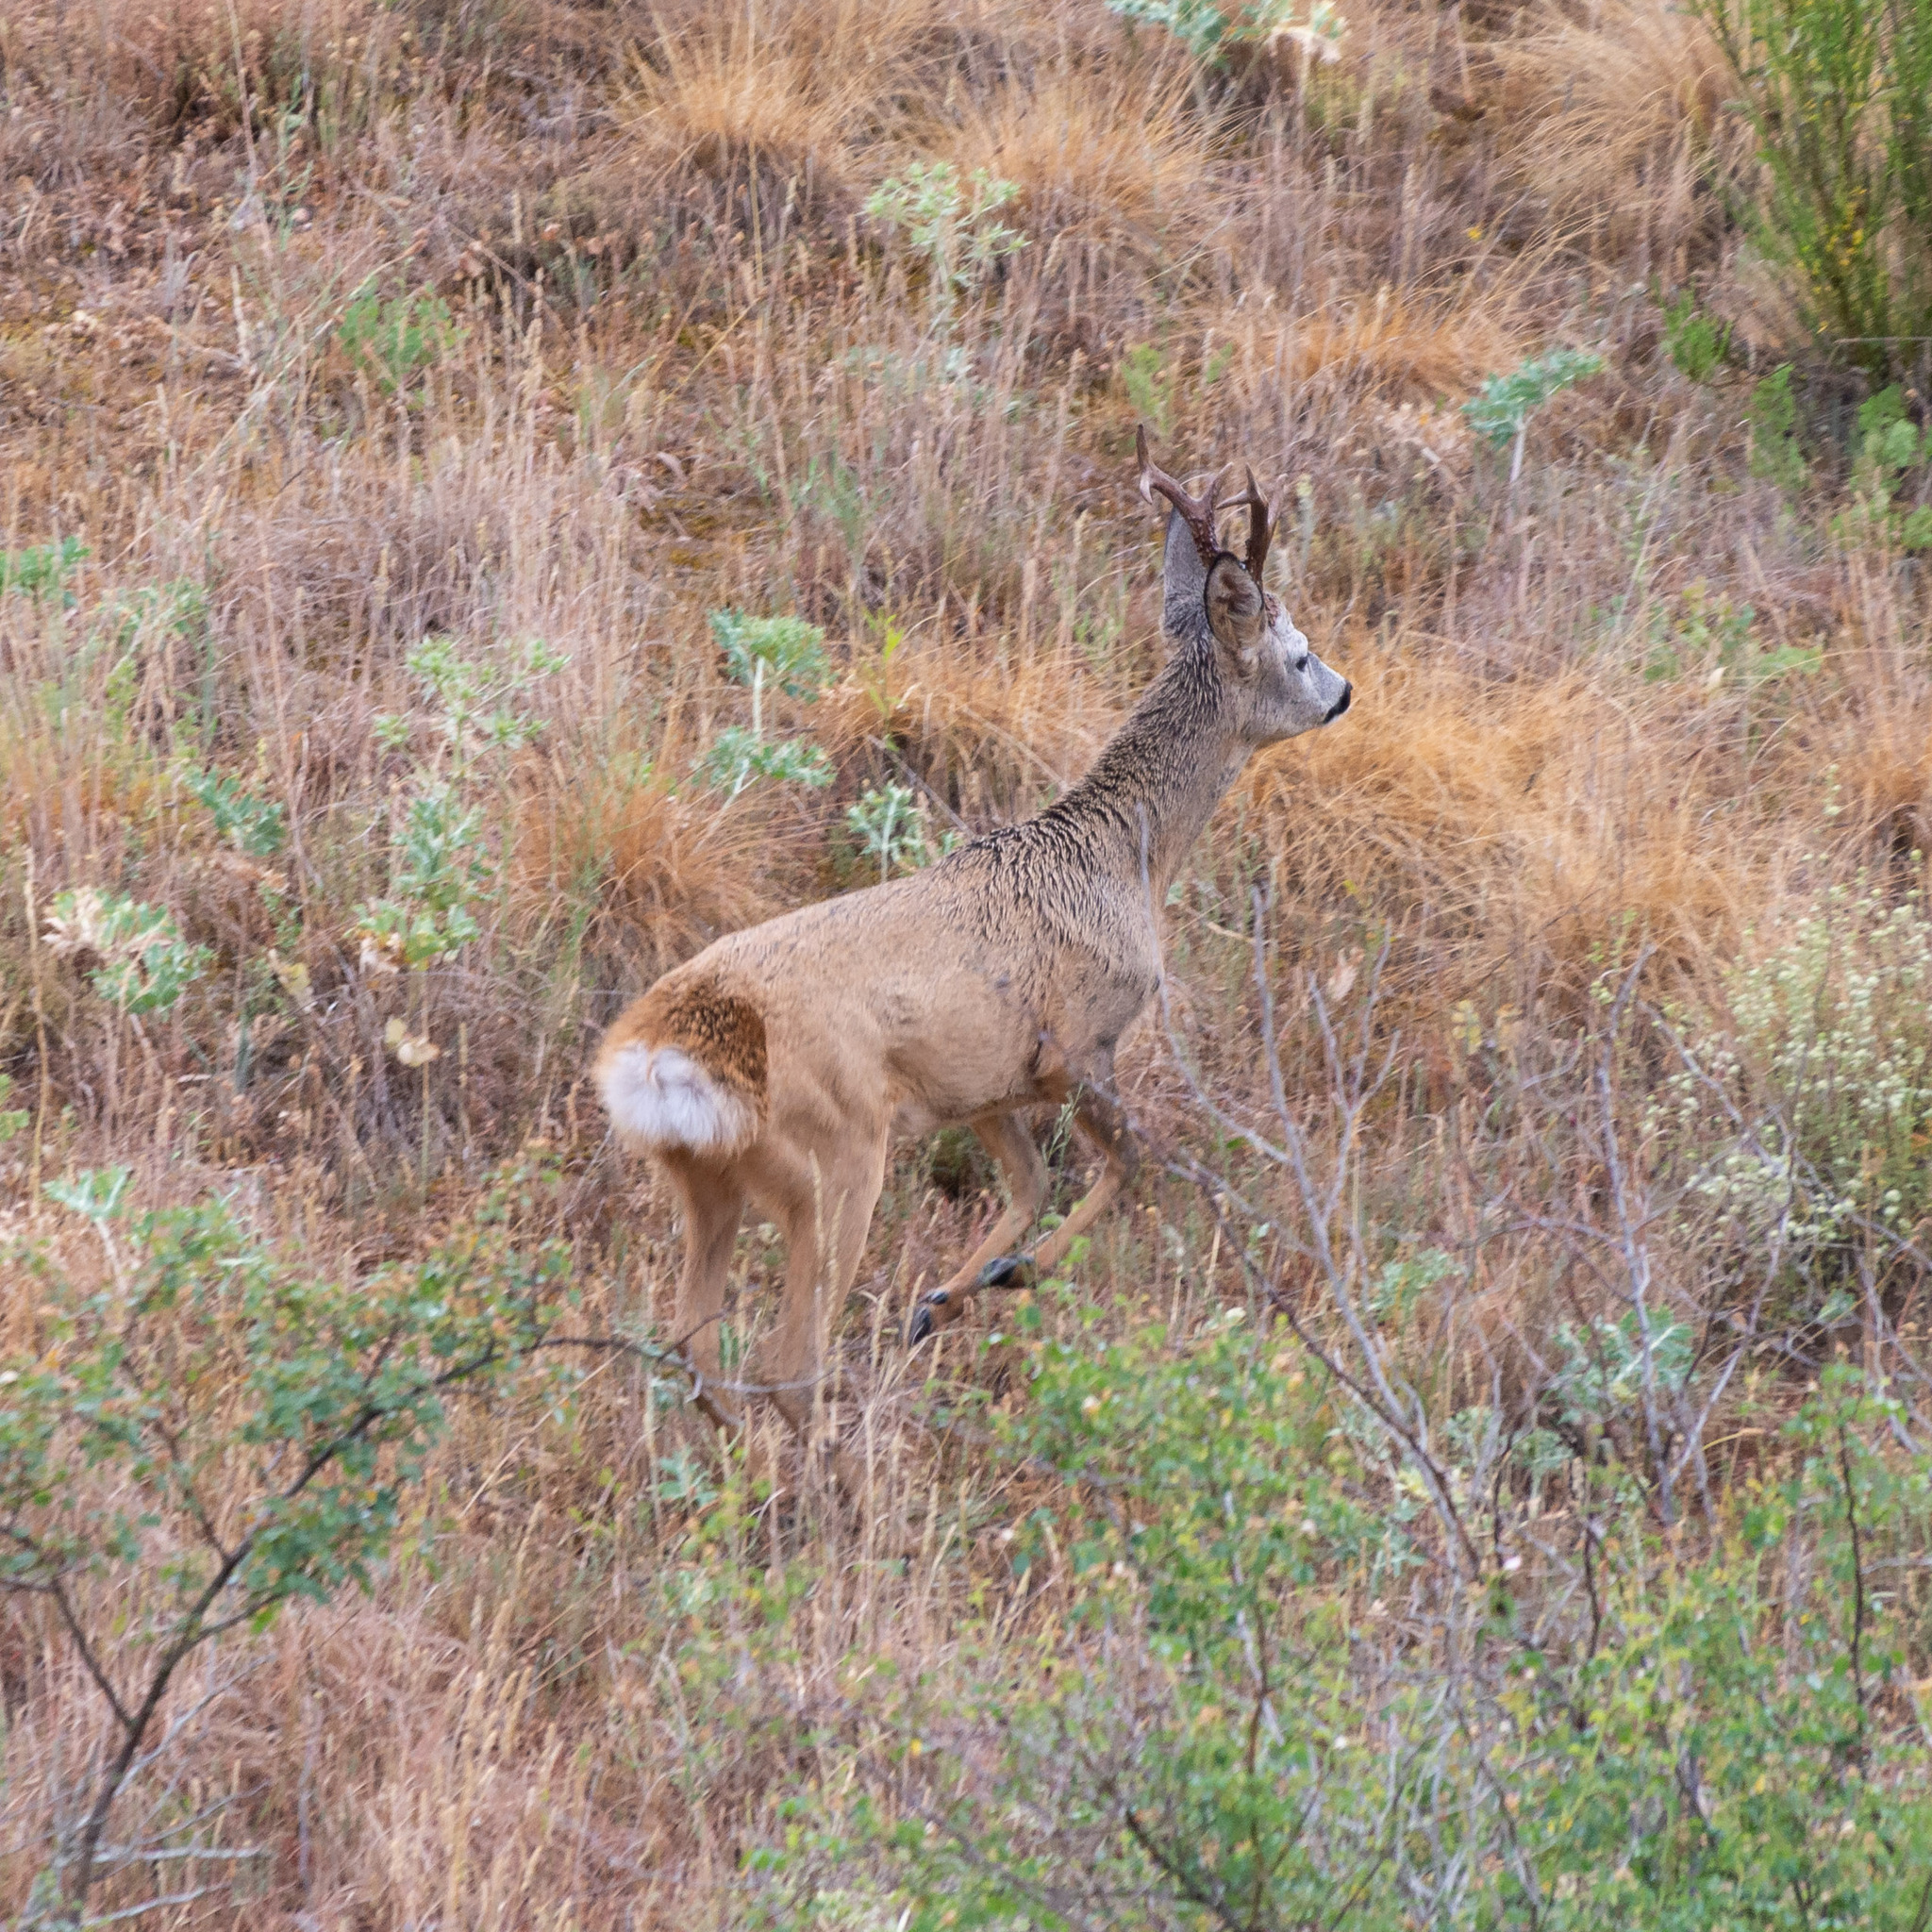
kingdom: Animalia
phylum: Chordata
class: Mammalia
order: Artiodactyla
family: Cervidae
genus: Capreolus
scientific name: Capreolus capreolus
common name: Western roe deer
